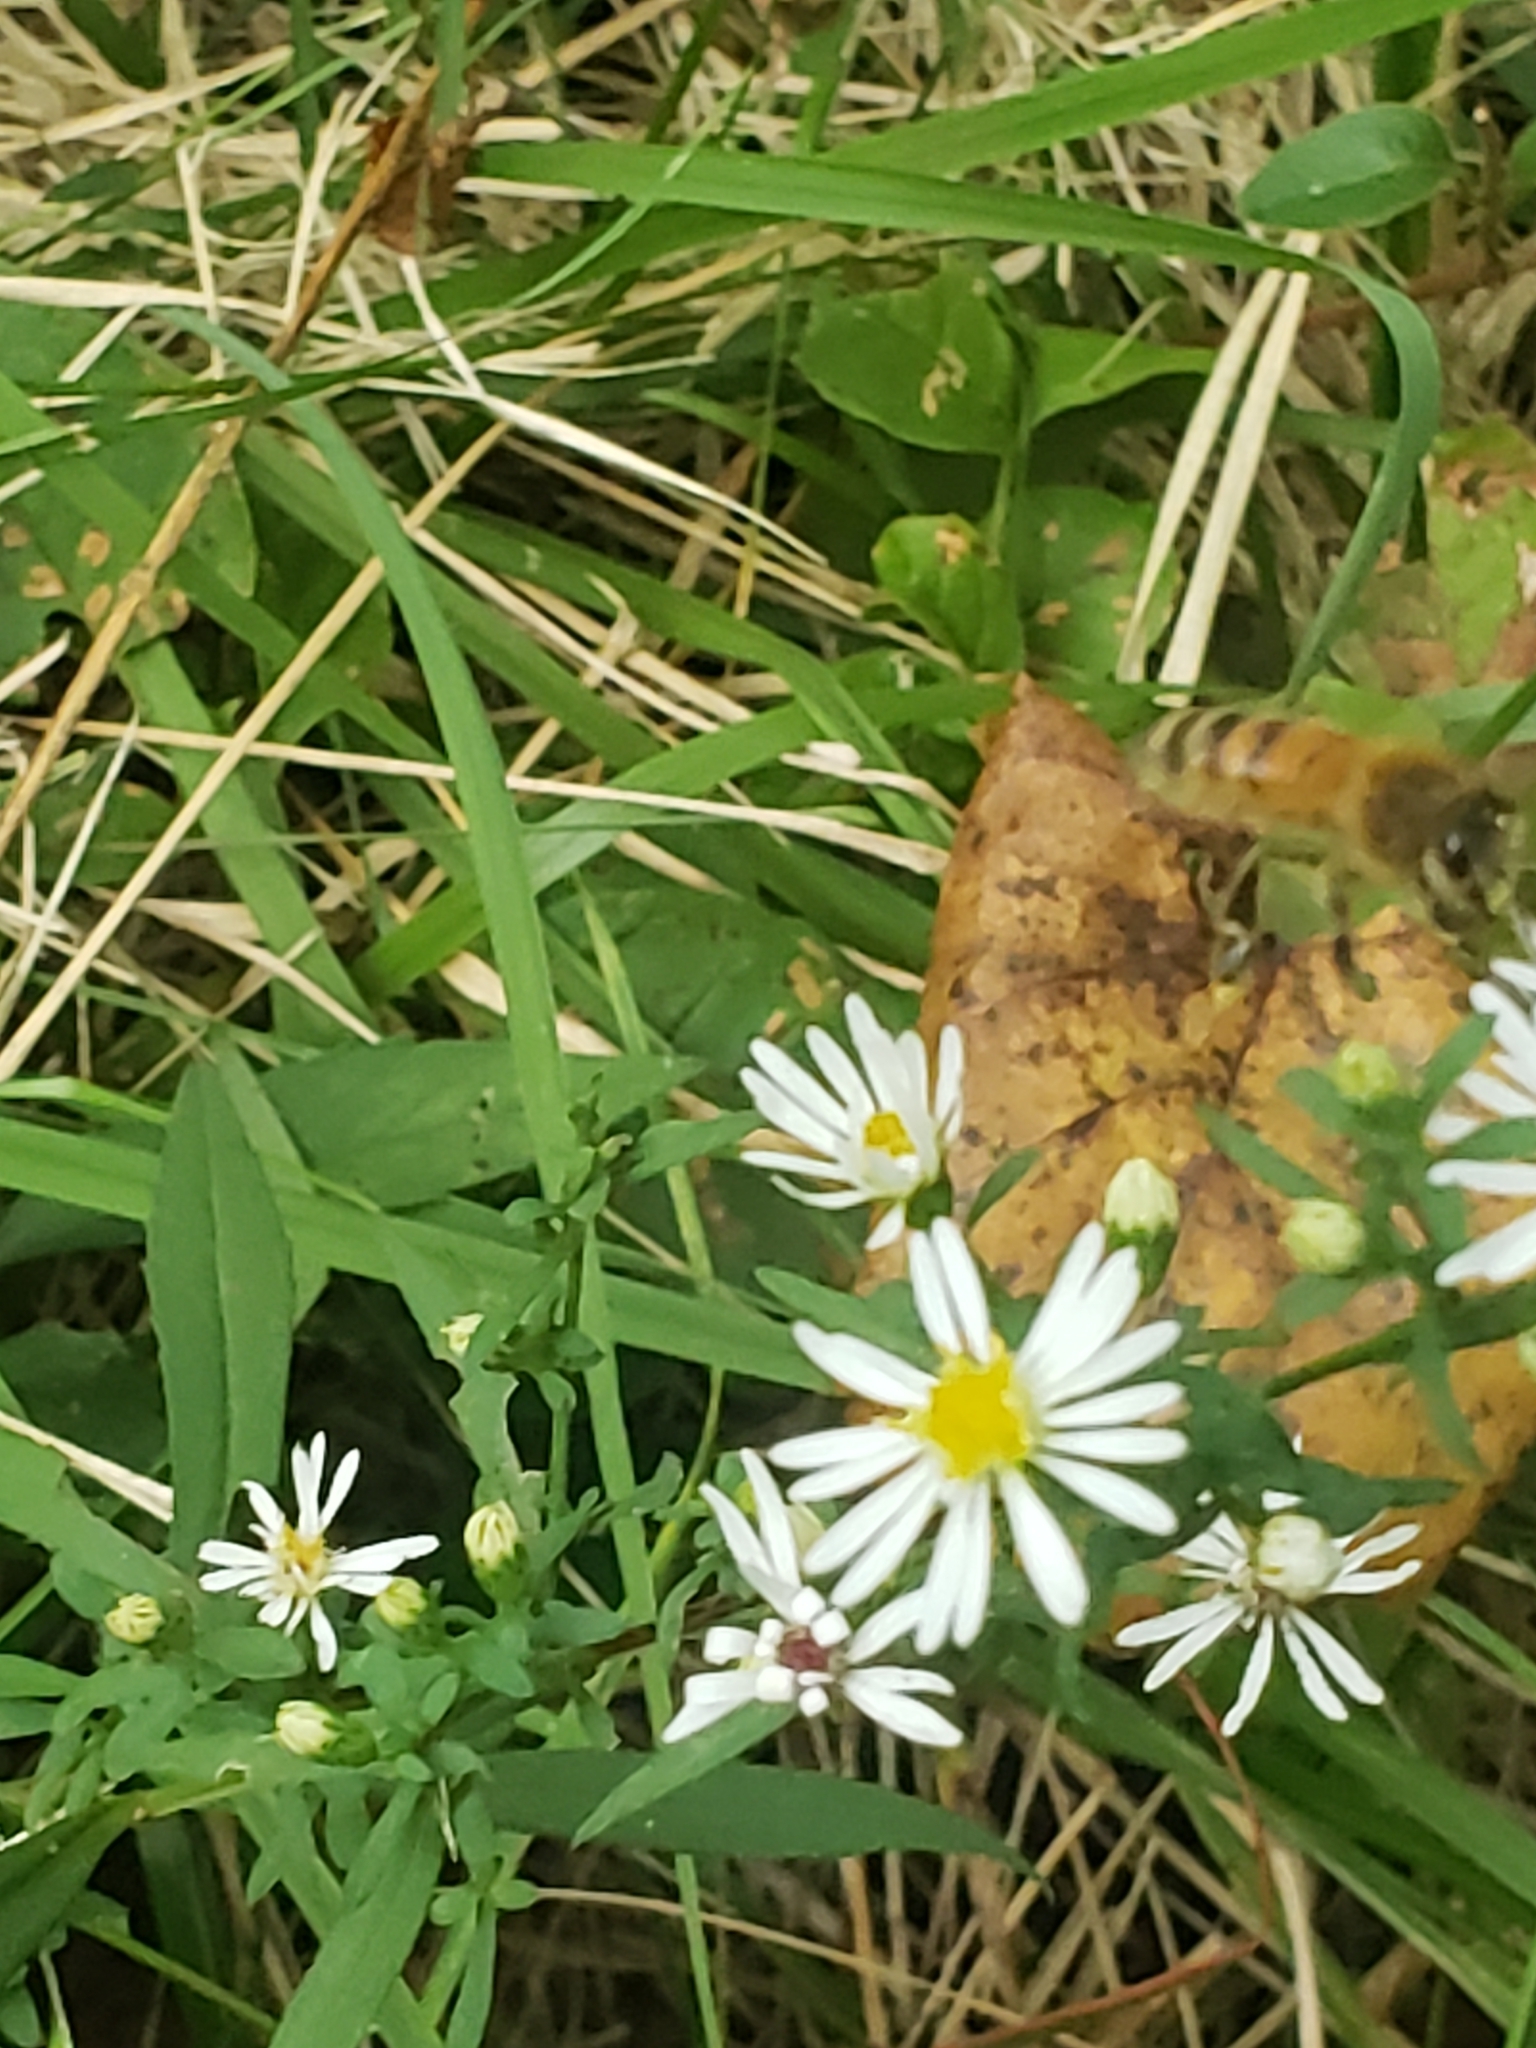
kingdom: Animalia
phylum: Arthropoda
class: Insecta
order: Hymenoptera
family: Apidae
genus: Apis
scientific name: Apis mellifera
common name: Honey bee
